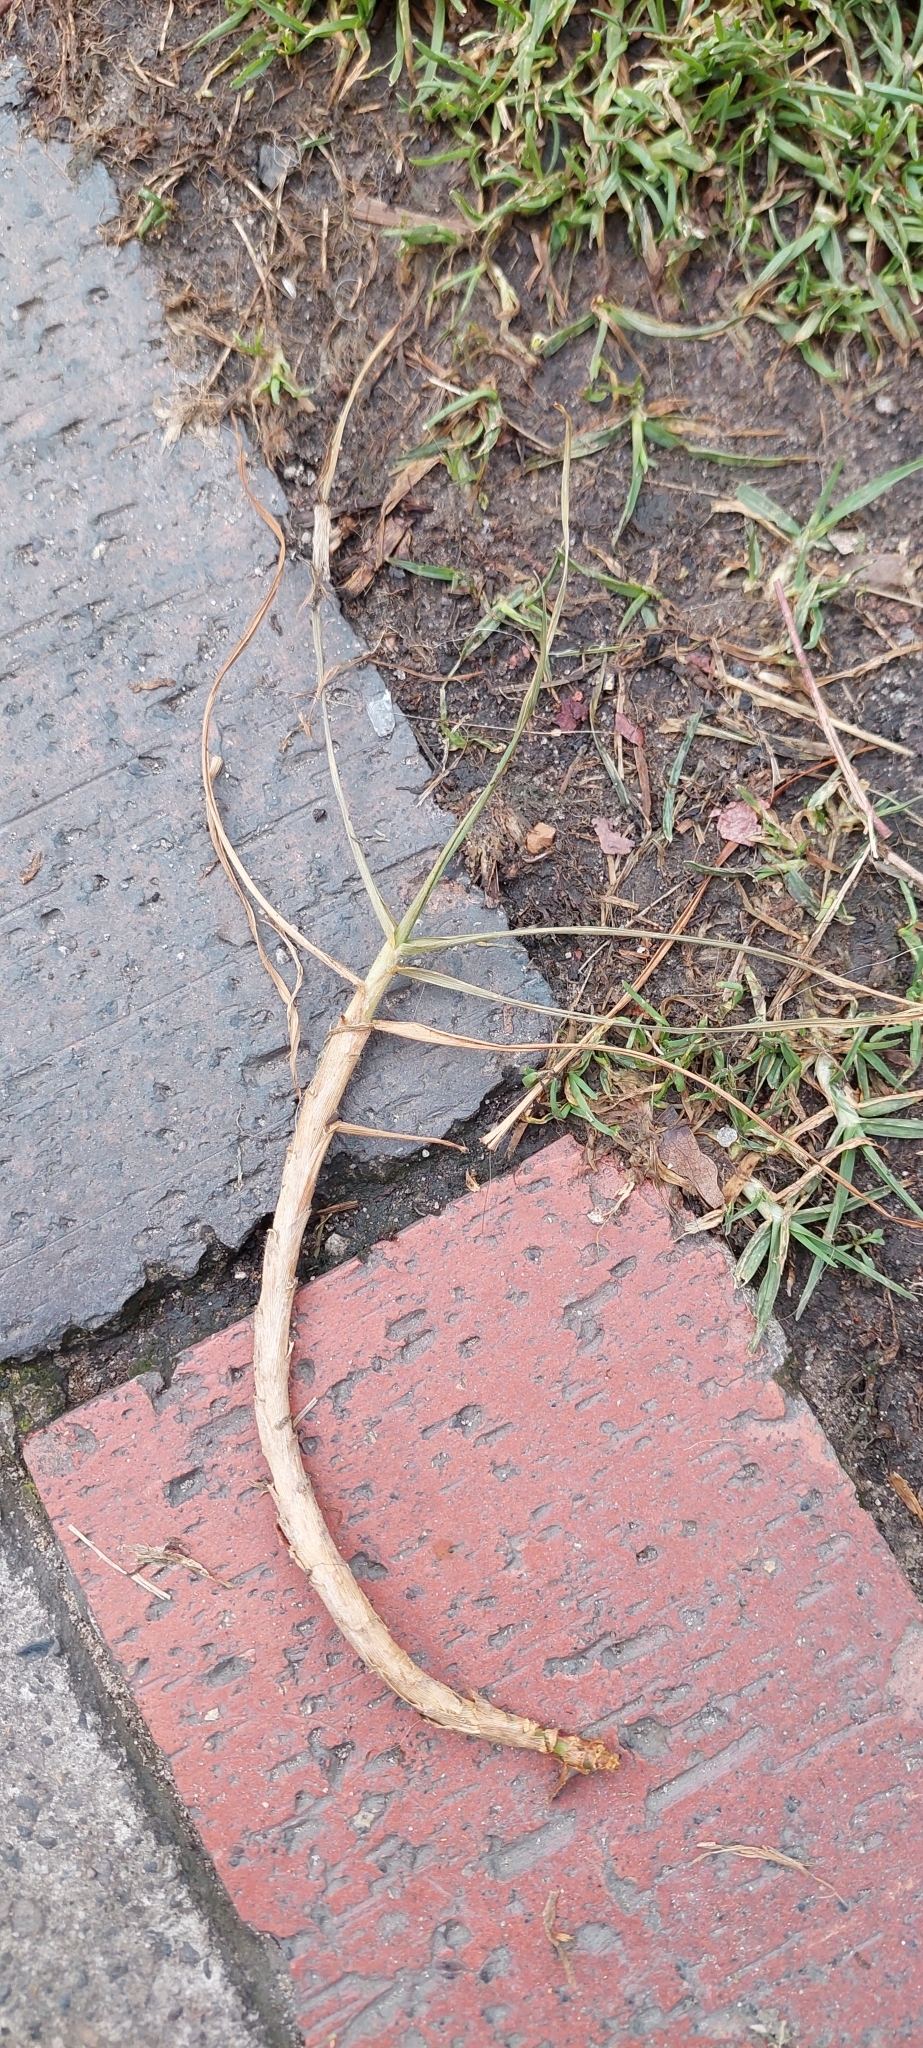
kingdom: Plantae
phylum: Tracheophyta
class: Liliopsida
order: Poales
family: Poaceae
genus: Cenchrus
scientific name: Cenchrus clandestinus
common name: Kikuyugrass
